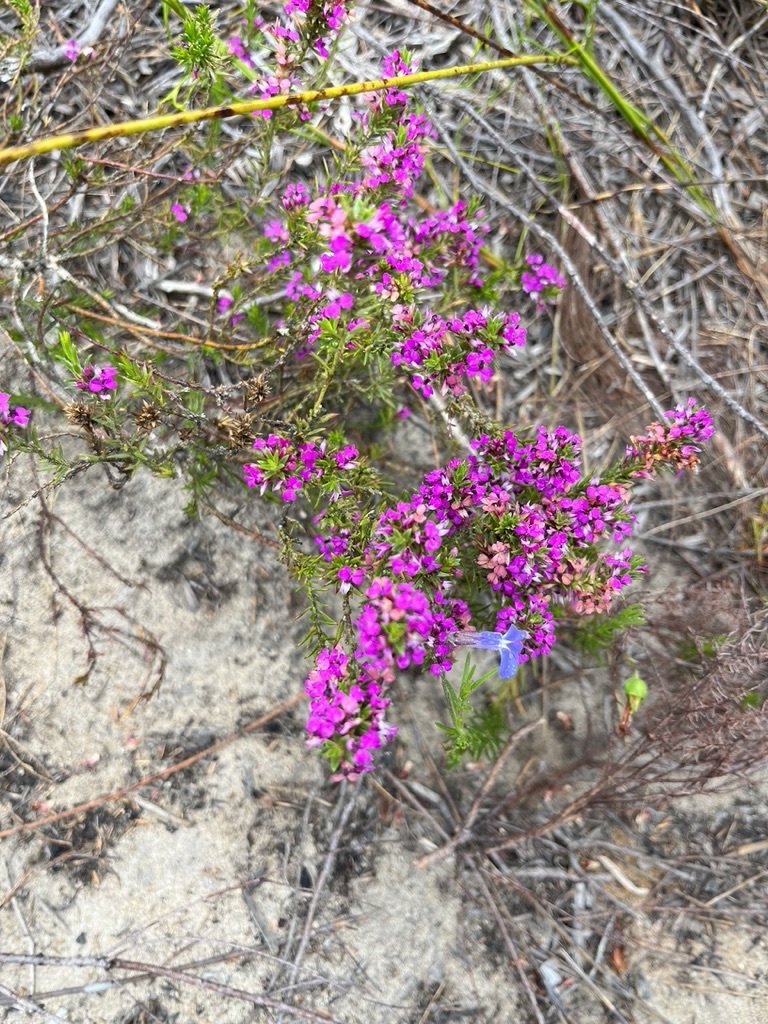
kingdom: Plantae
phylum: Tracheophyta
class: Magnoliopsida
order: Fabales
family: Polygalaceae
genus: Muraltia
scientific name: Muraltia heisteria
